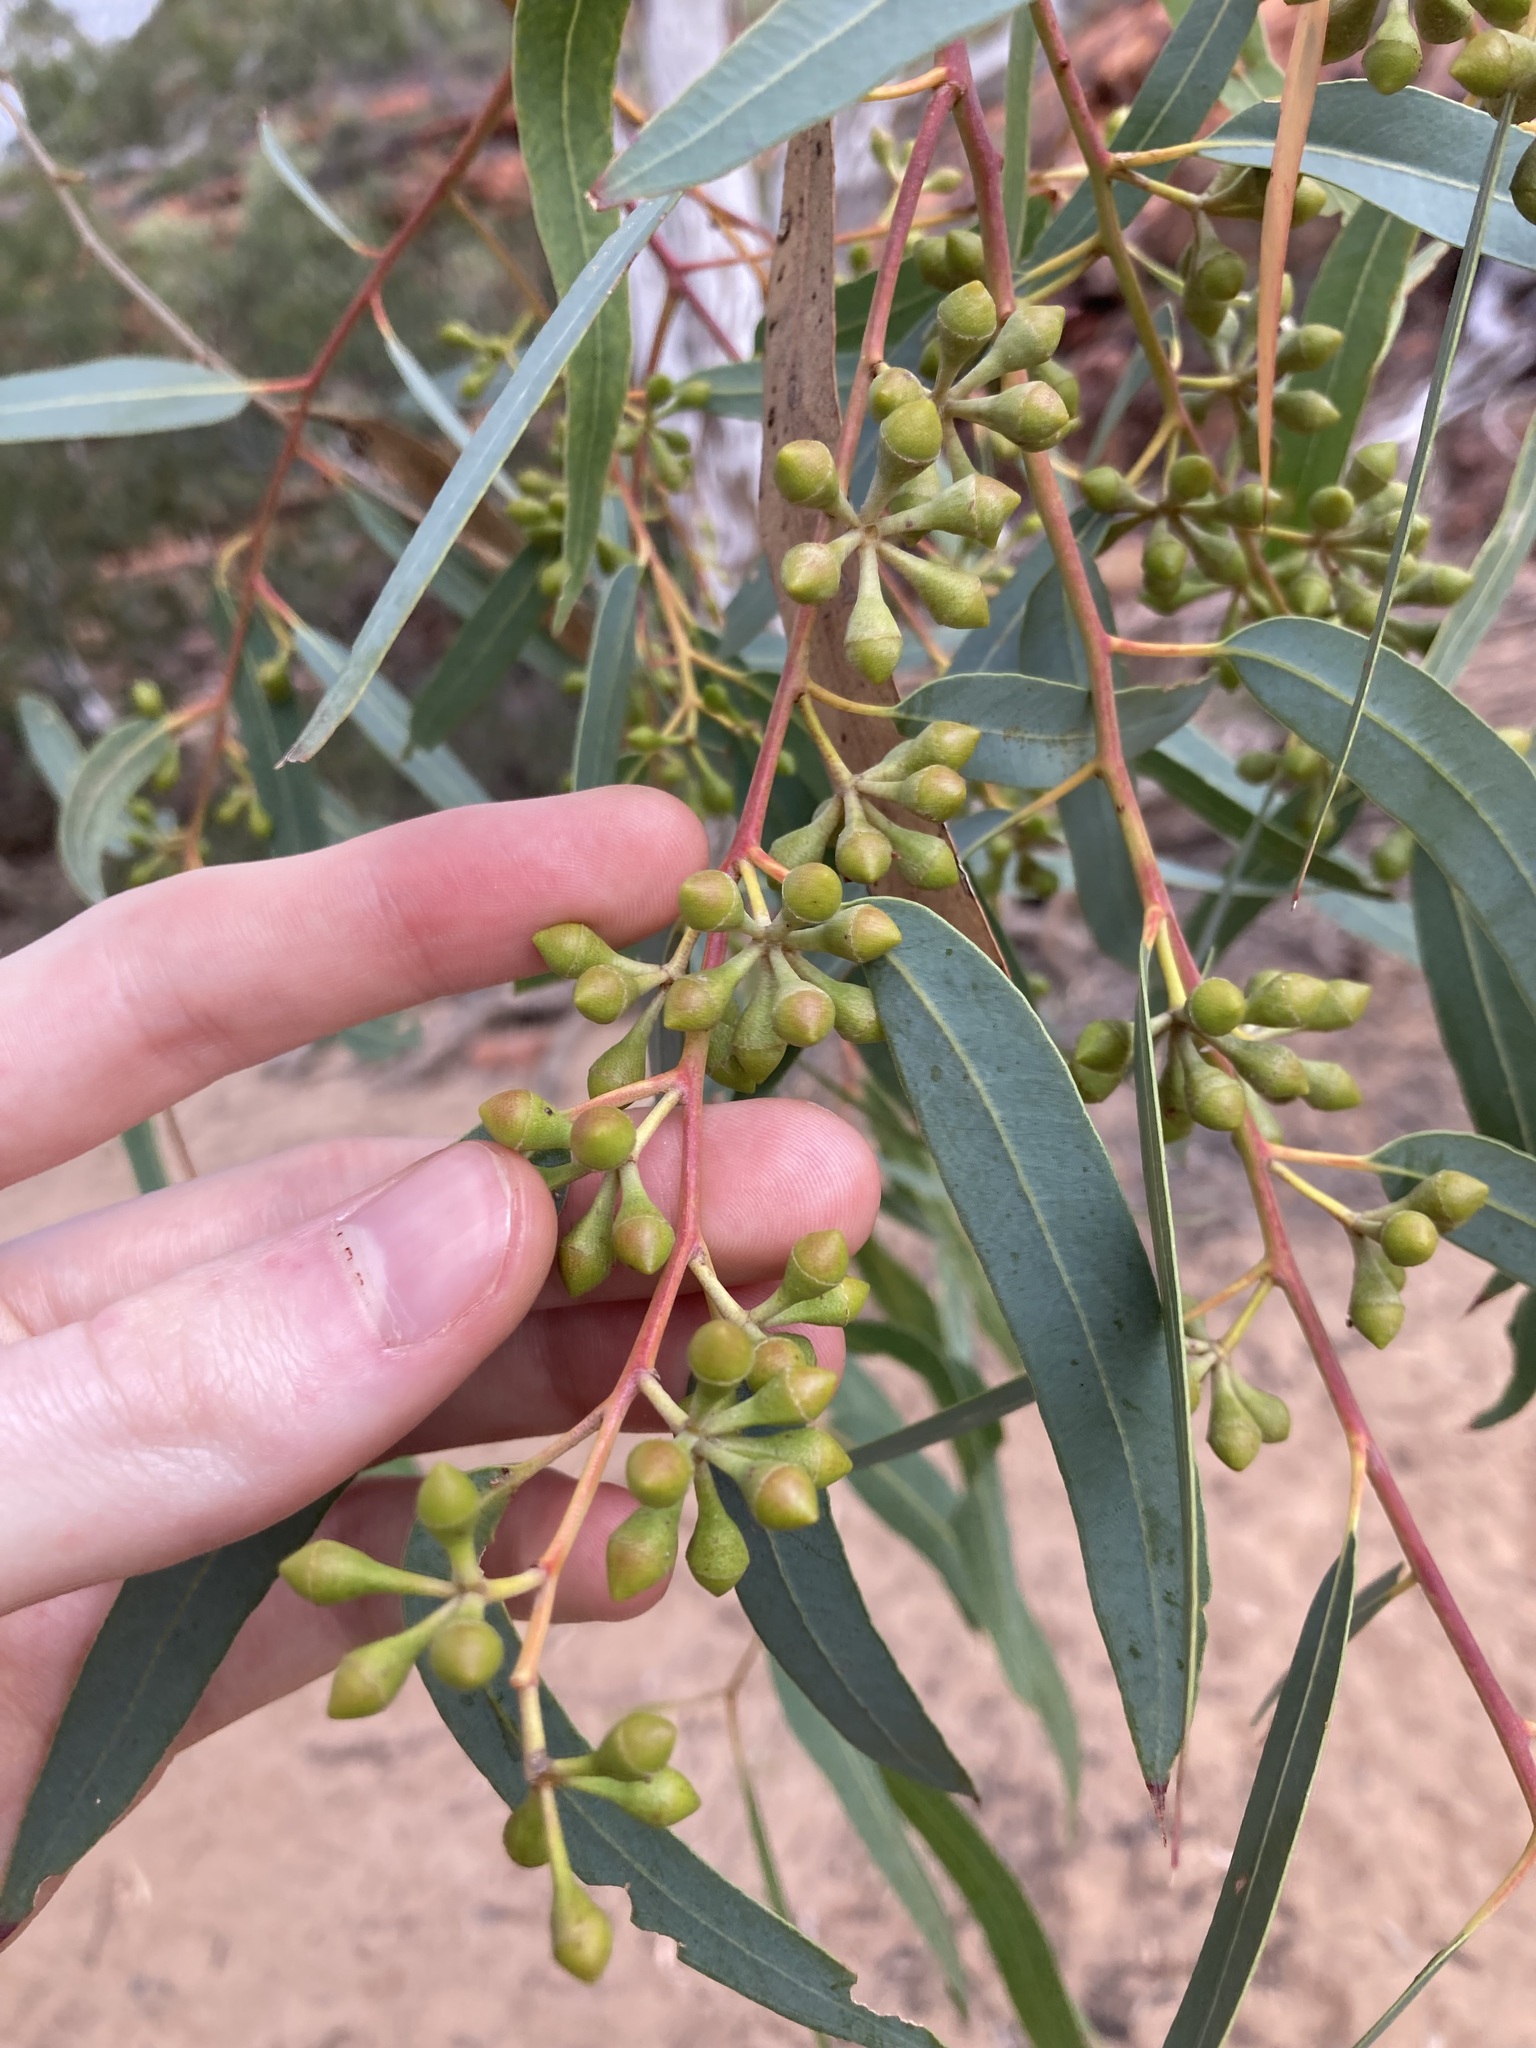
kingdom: Plantae
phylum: Tracheophyta
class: Magnoliopsida
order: Myrtales
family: Myrtaceae
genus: Eucalyptus
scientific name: Eucalyptus camaldulensis
